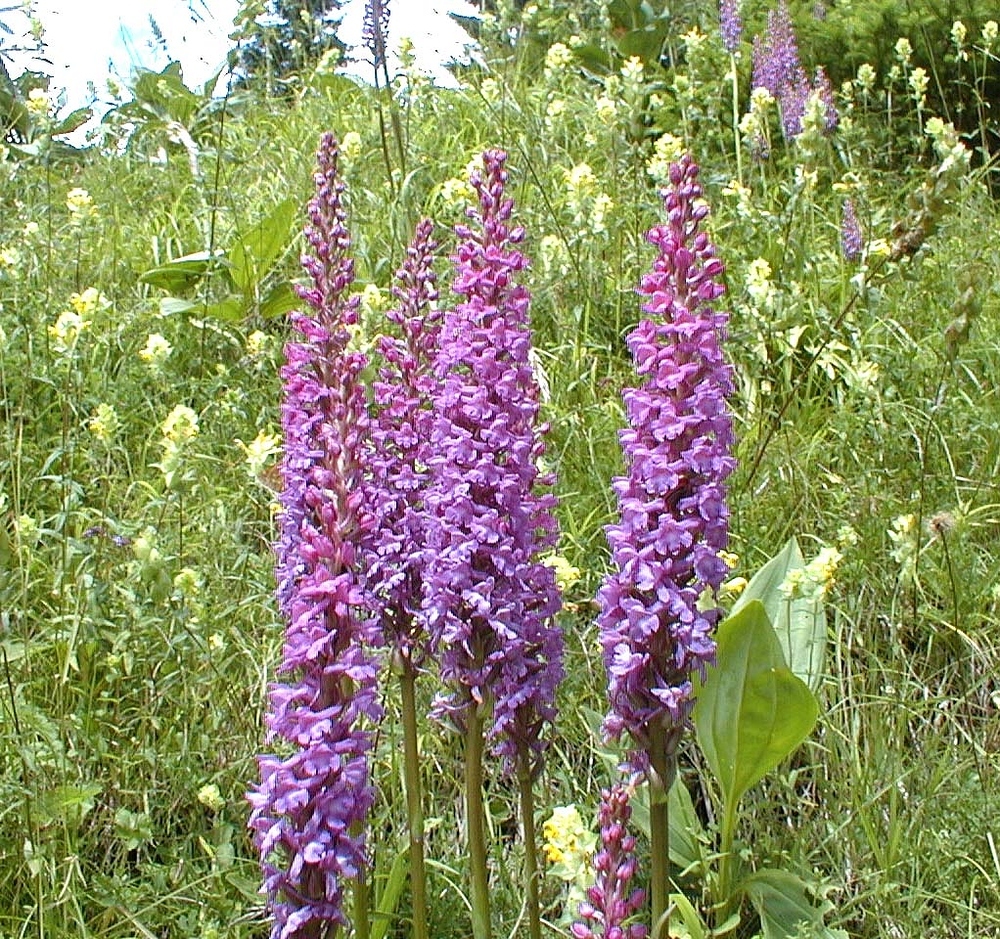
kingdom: Plantae
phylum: Tracheophyta
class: Liliopsida
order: Asparagales
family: Orchidaceae
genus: Gymnadenia
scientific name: Gymnadenia conopsea
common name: Fragrant orchid
